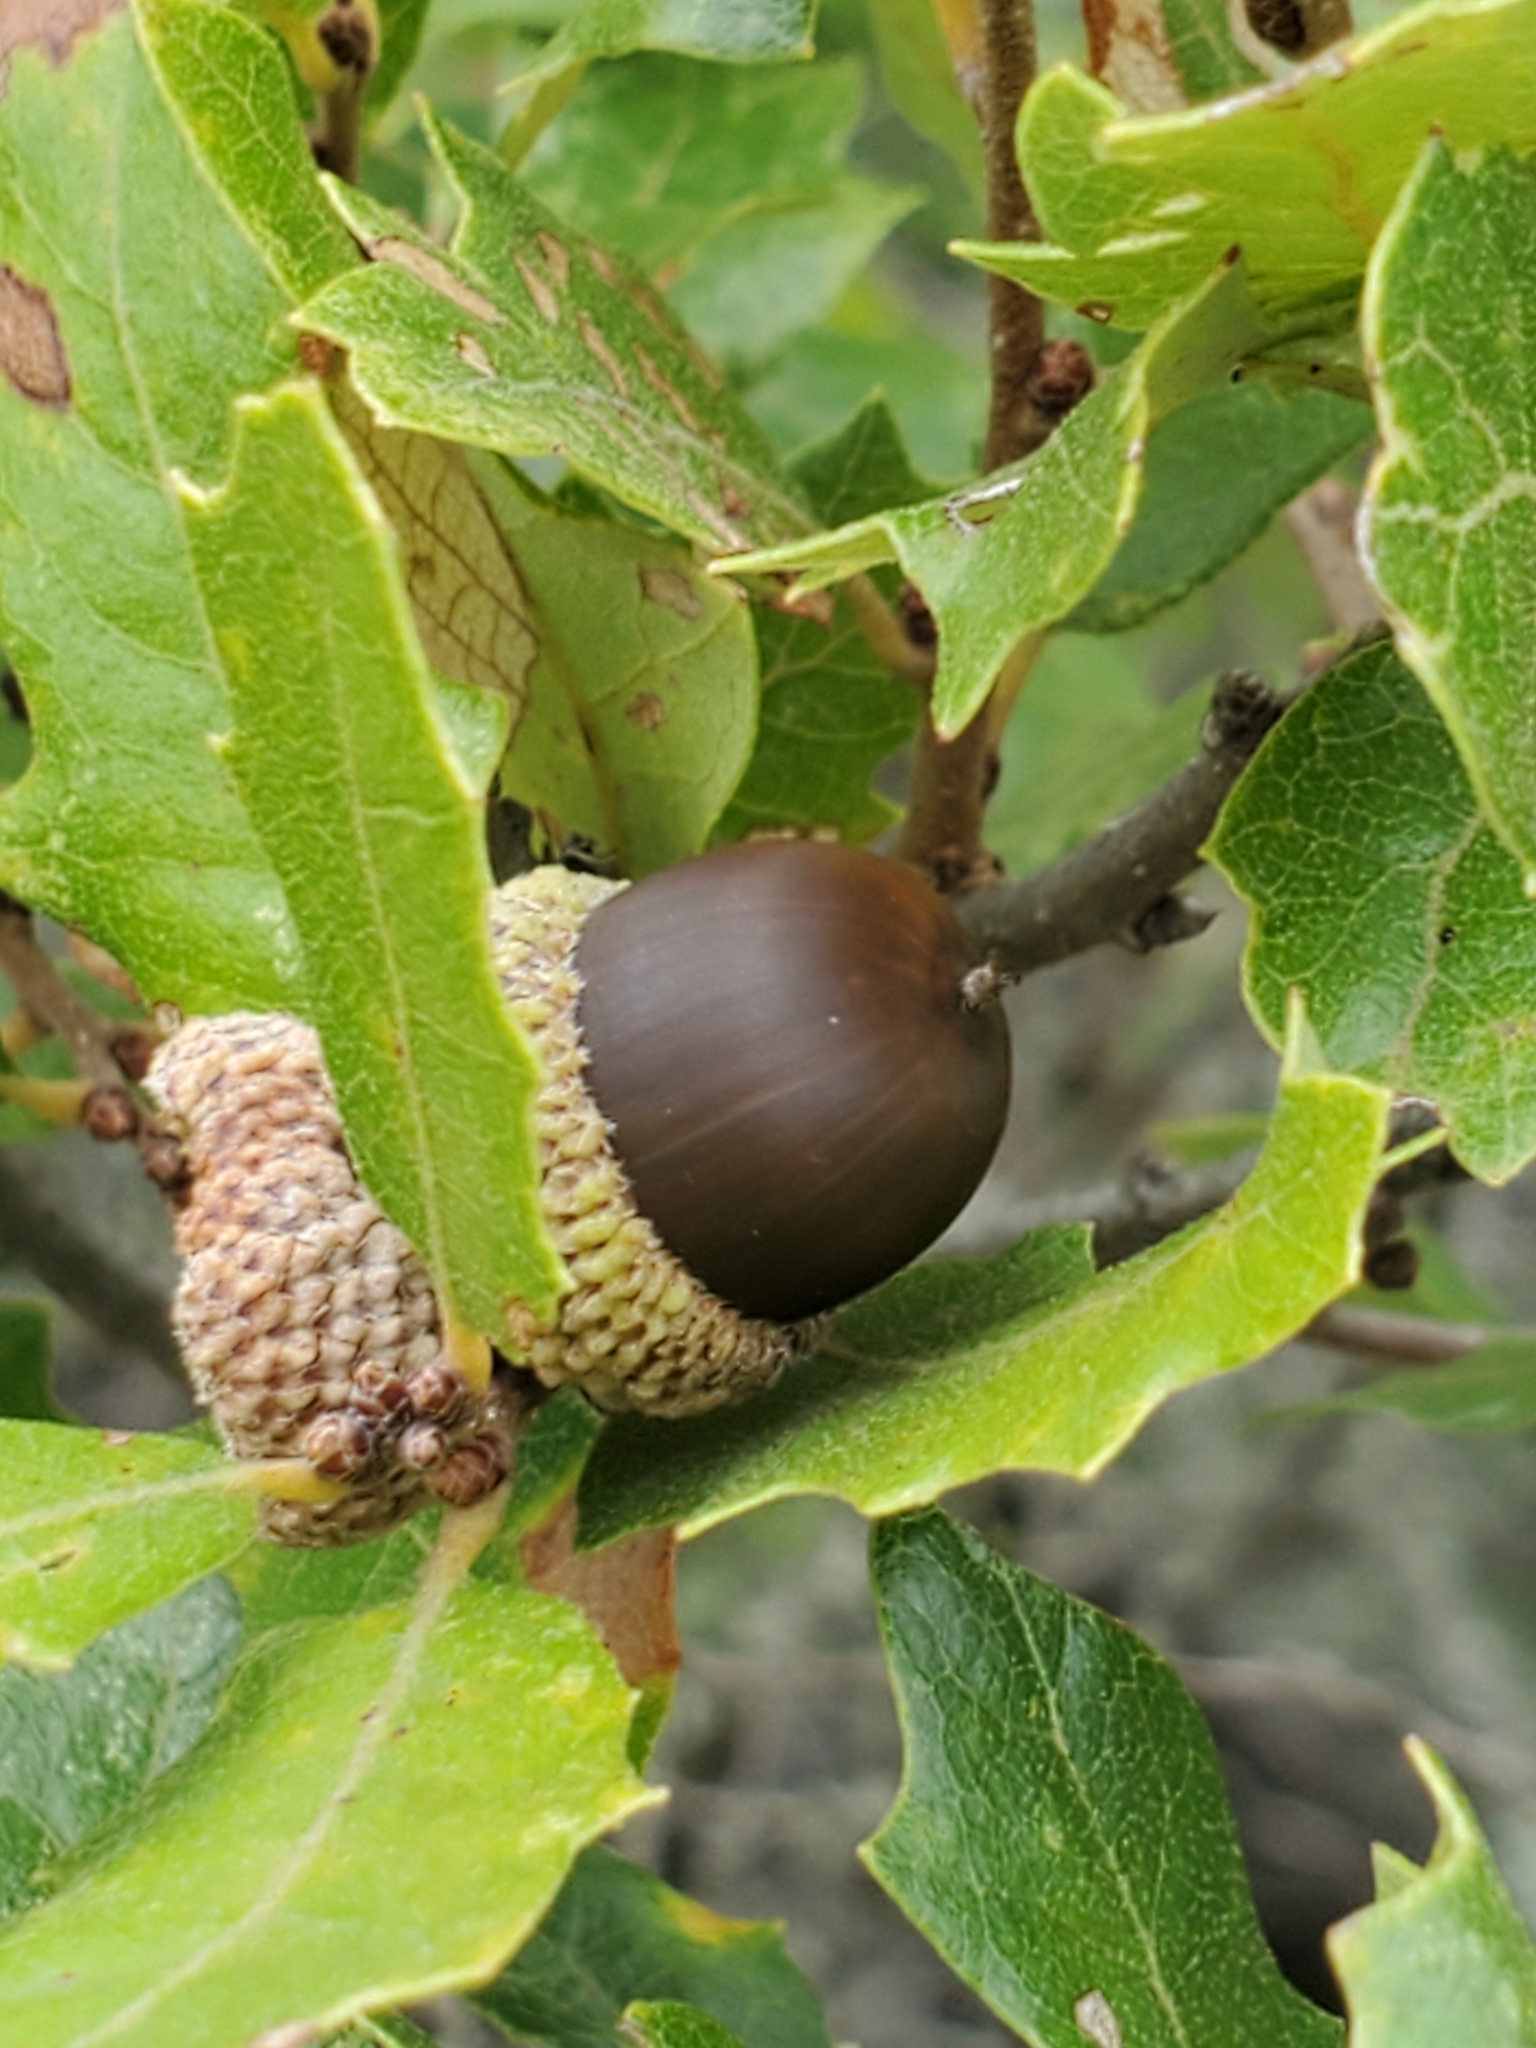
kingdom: Plantae
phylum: Tracheophyta
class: Magnoliopsida
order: Fagales
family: Fagaceae
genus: Quercus
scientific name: Quercus vaseyana
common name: Sandpaper oak
